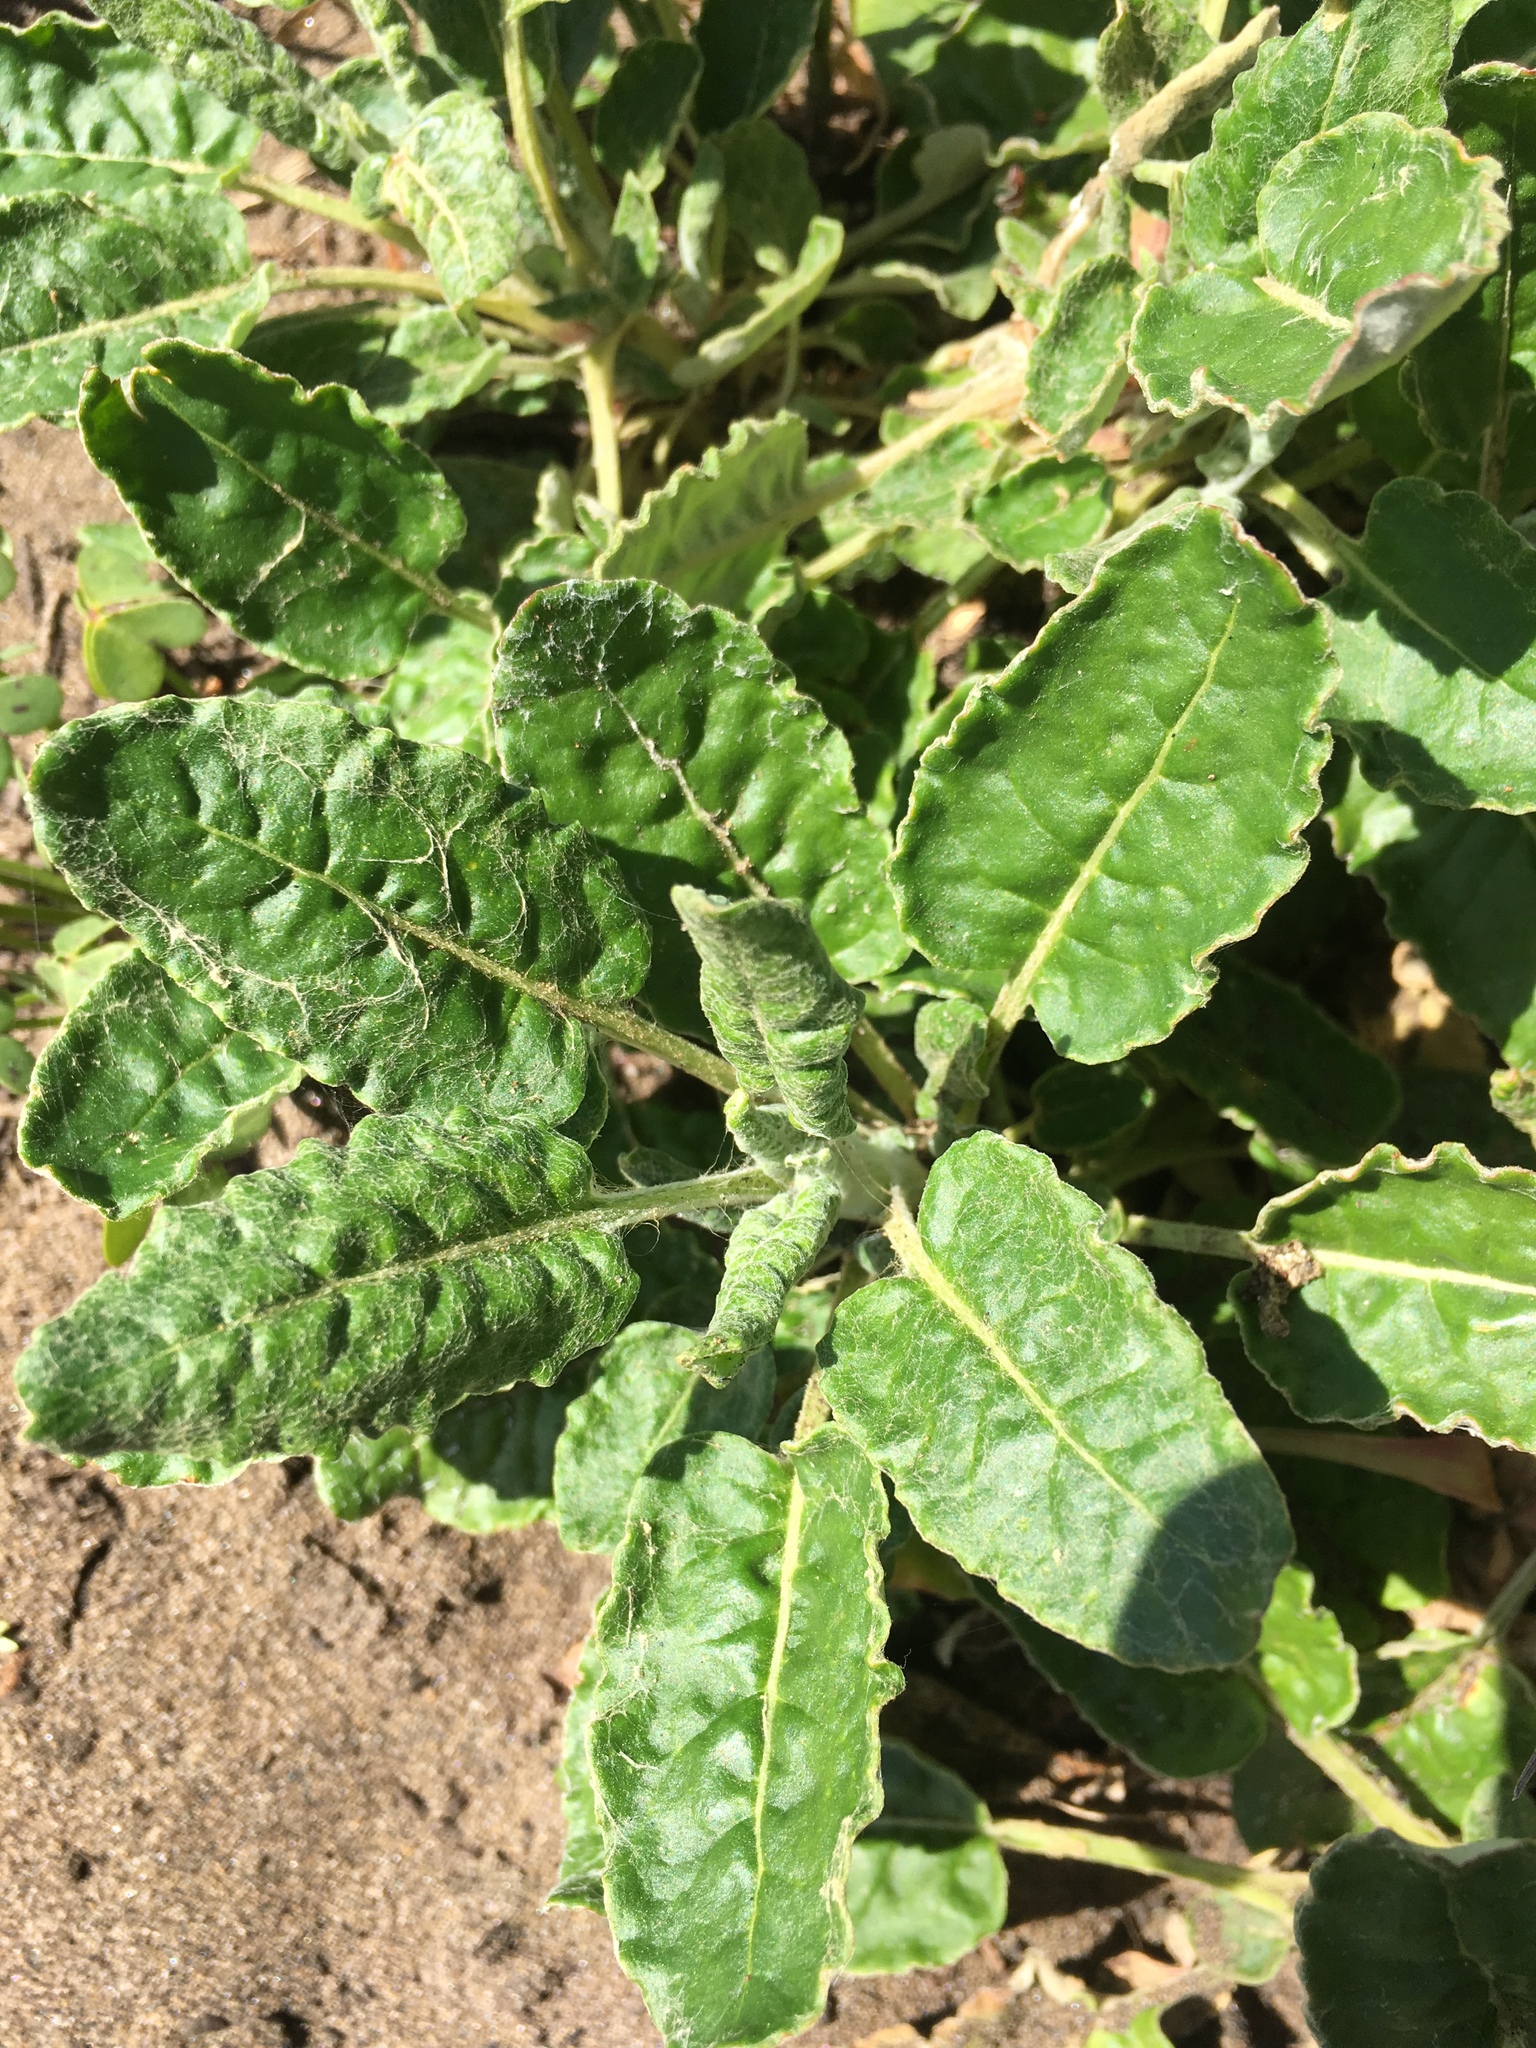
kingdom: Plantae
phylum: Tracheophyta
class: Magnoliopsida
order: Caryophyllales
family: Polygonaceae
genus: Eriogonum
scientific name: Eriogonum latifolium
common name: Seaside wild buckwheat
